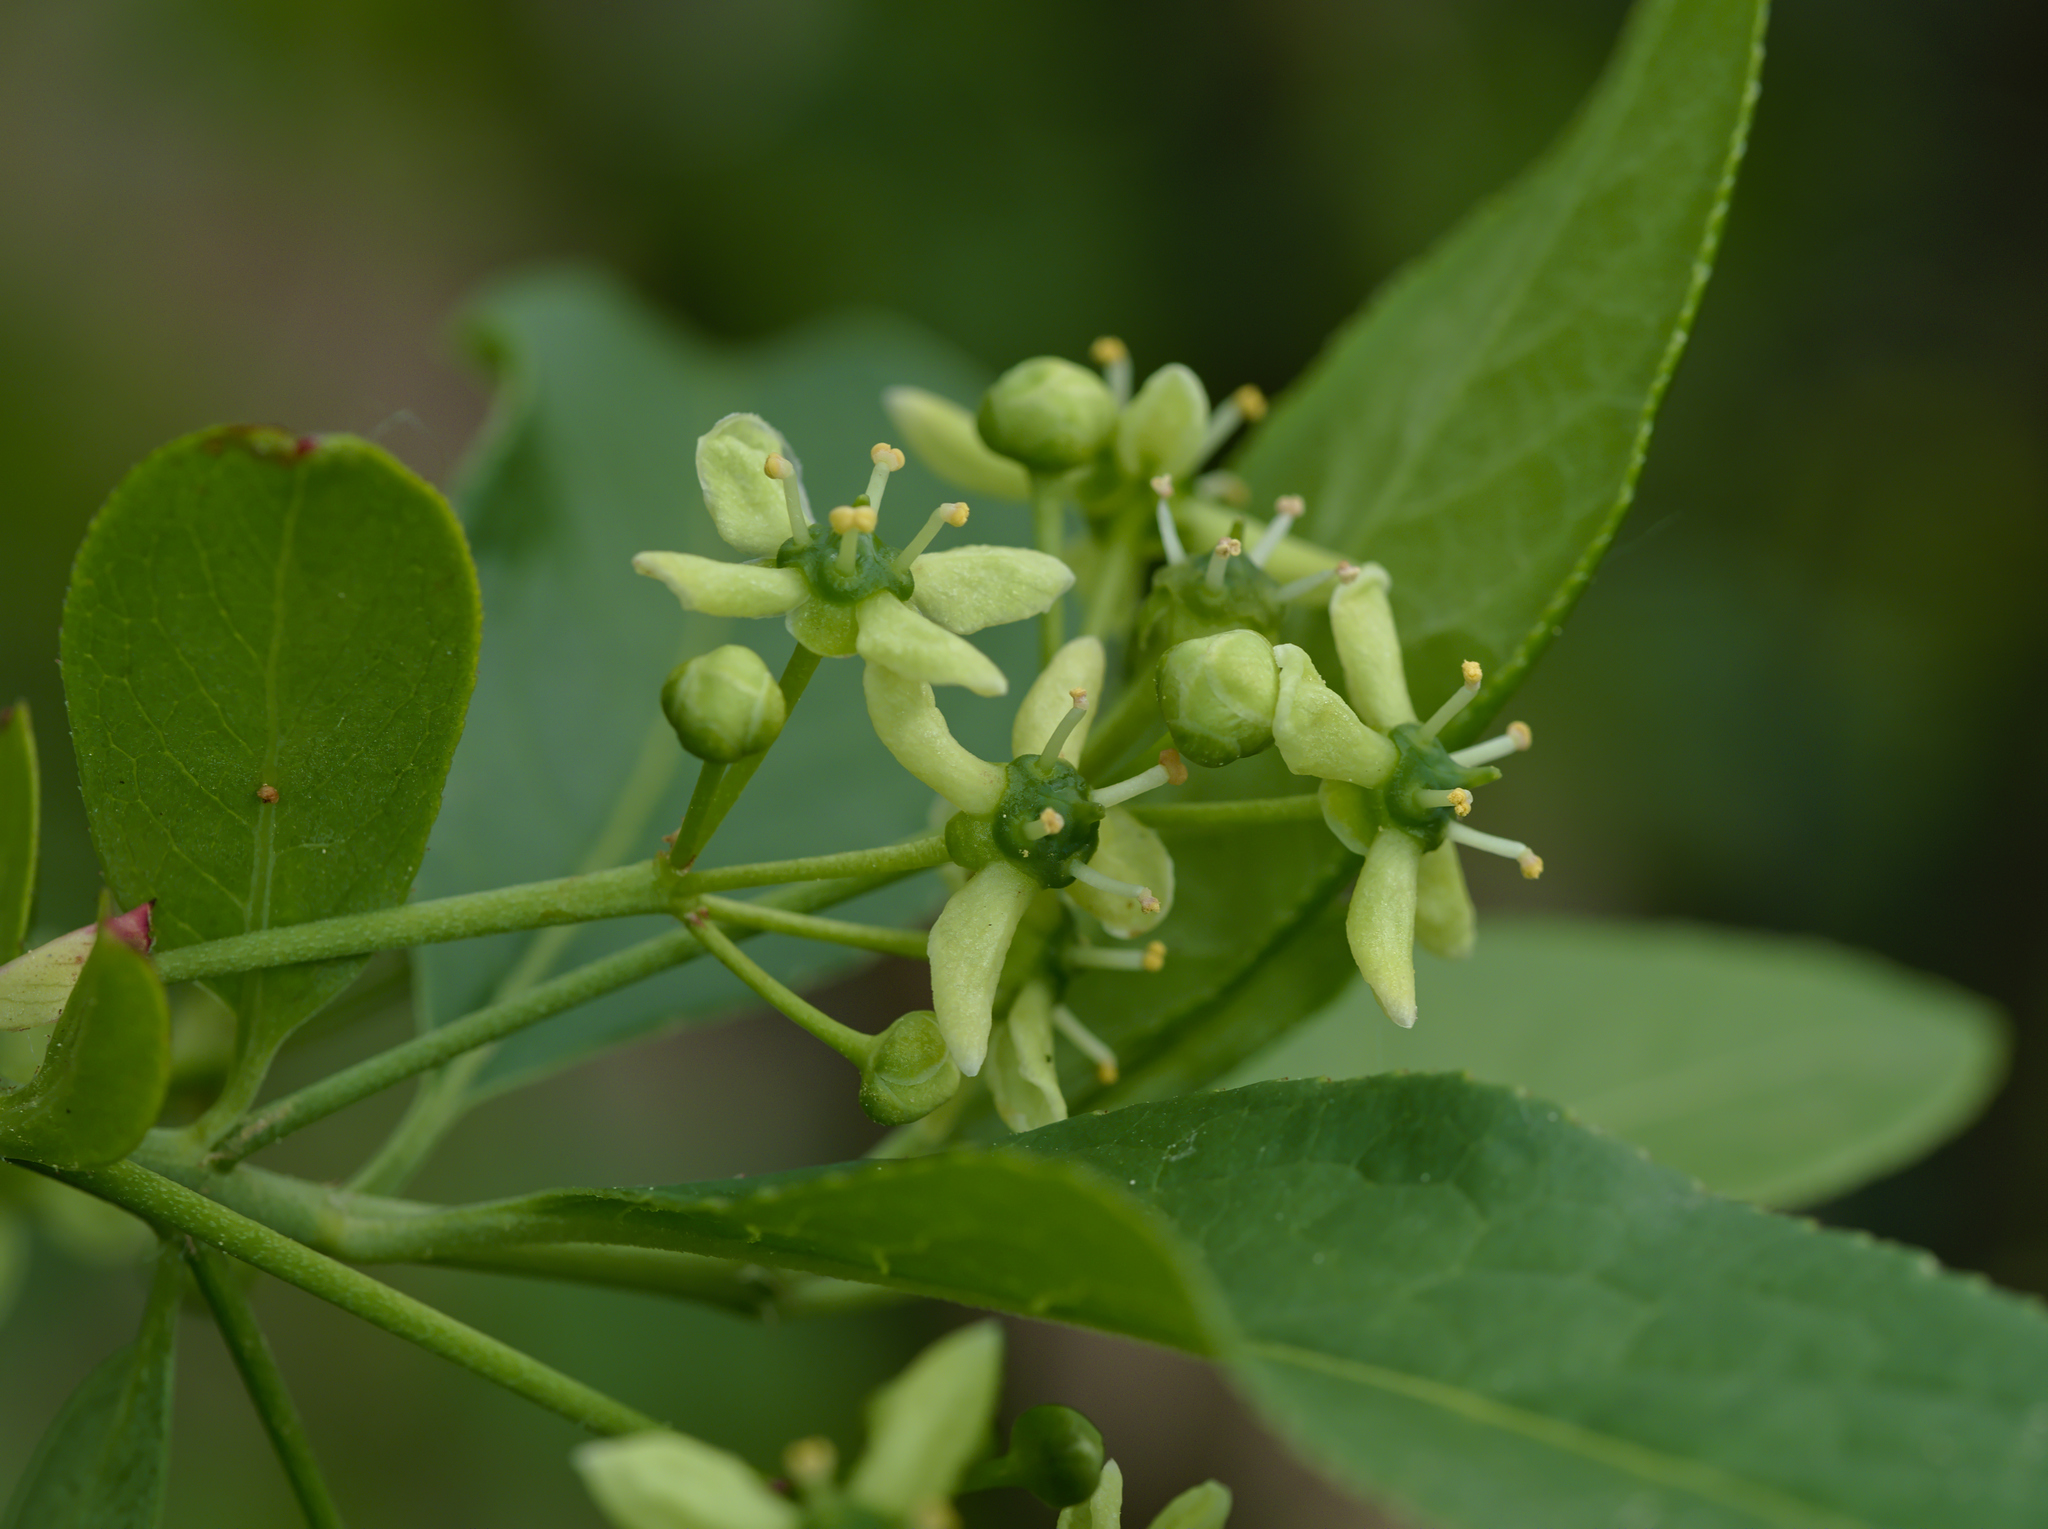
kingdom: Plantae
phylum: Tracheophyta
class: Magnoliopsida
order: Celastrales
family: Celastraceae
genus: Euonymus
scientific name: Euonymus europaeus
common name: Spindle
